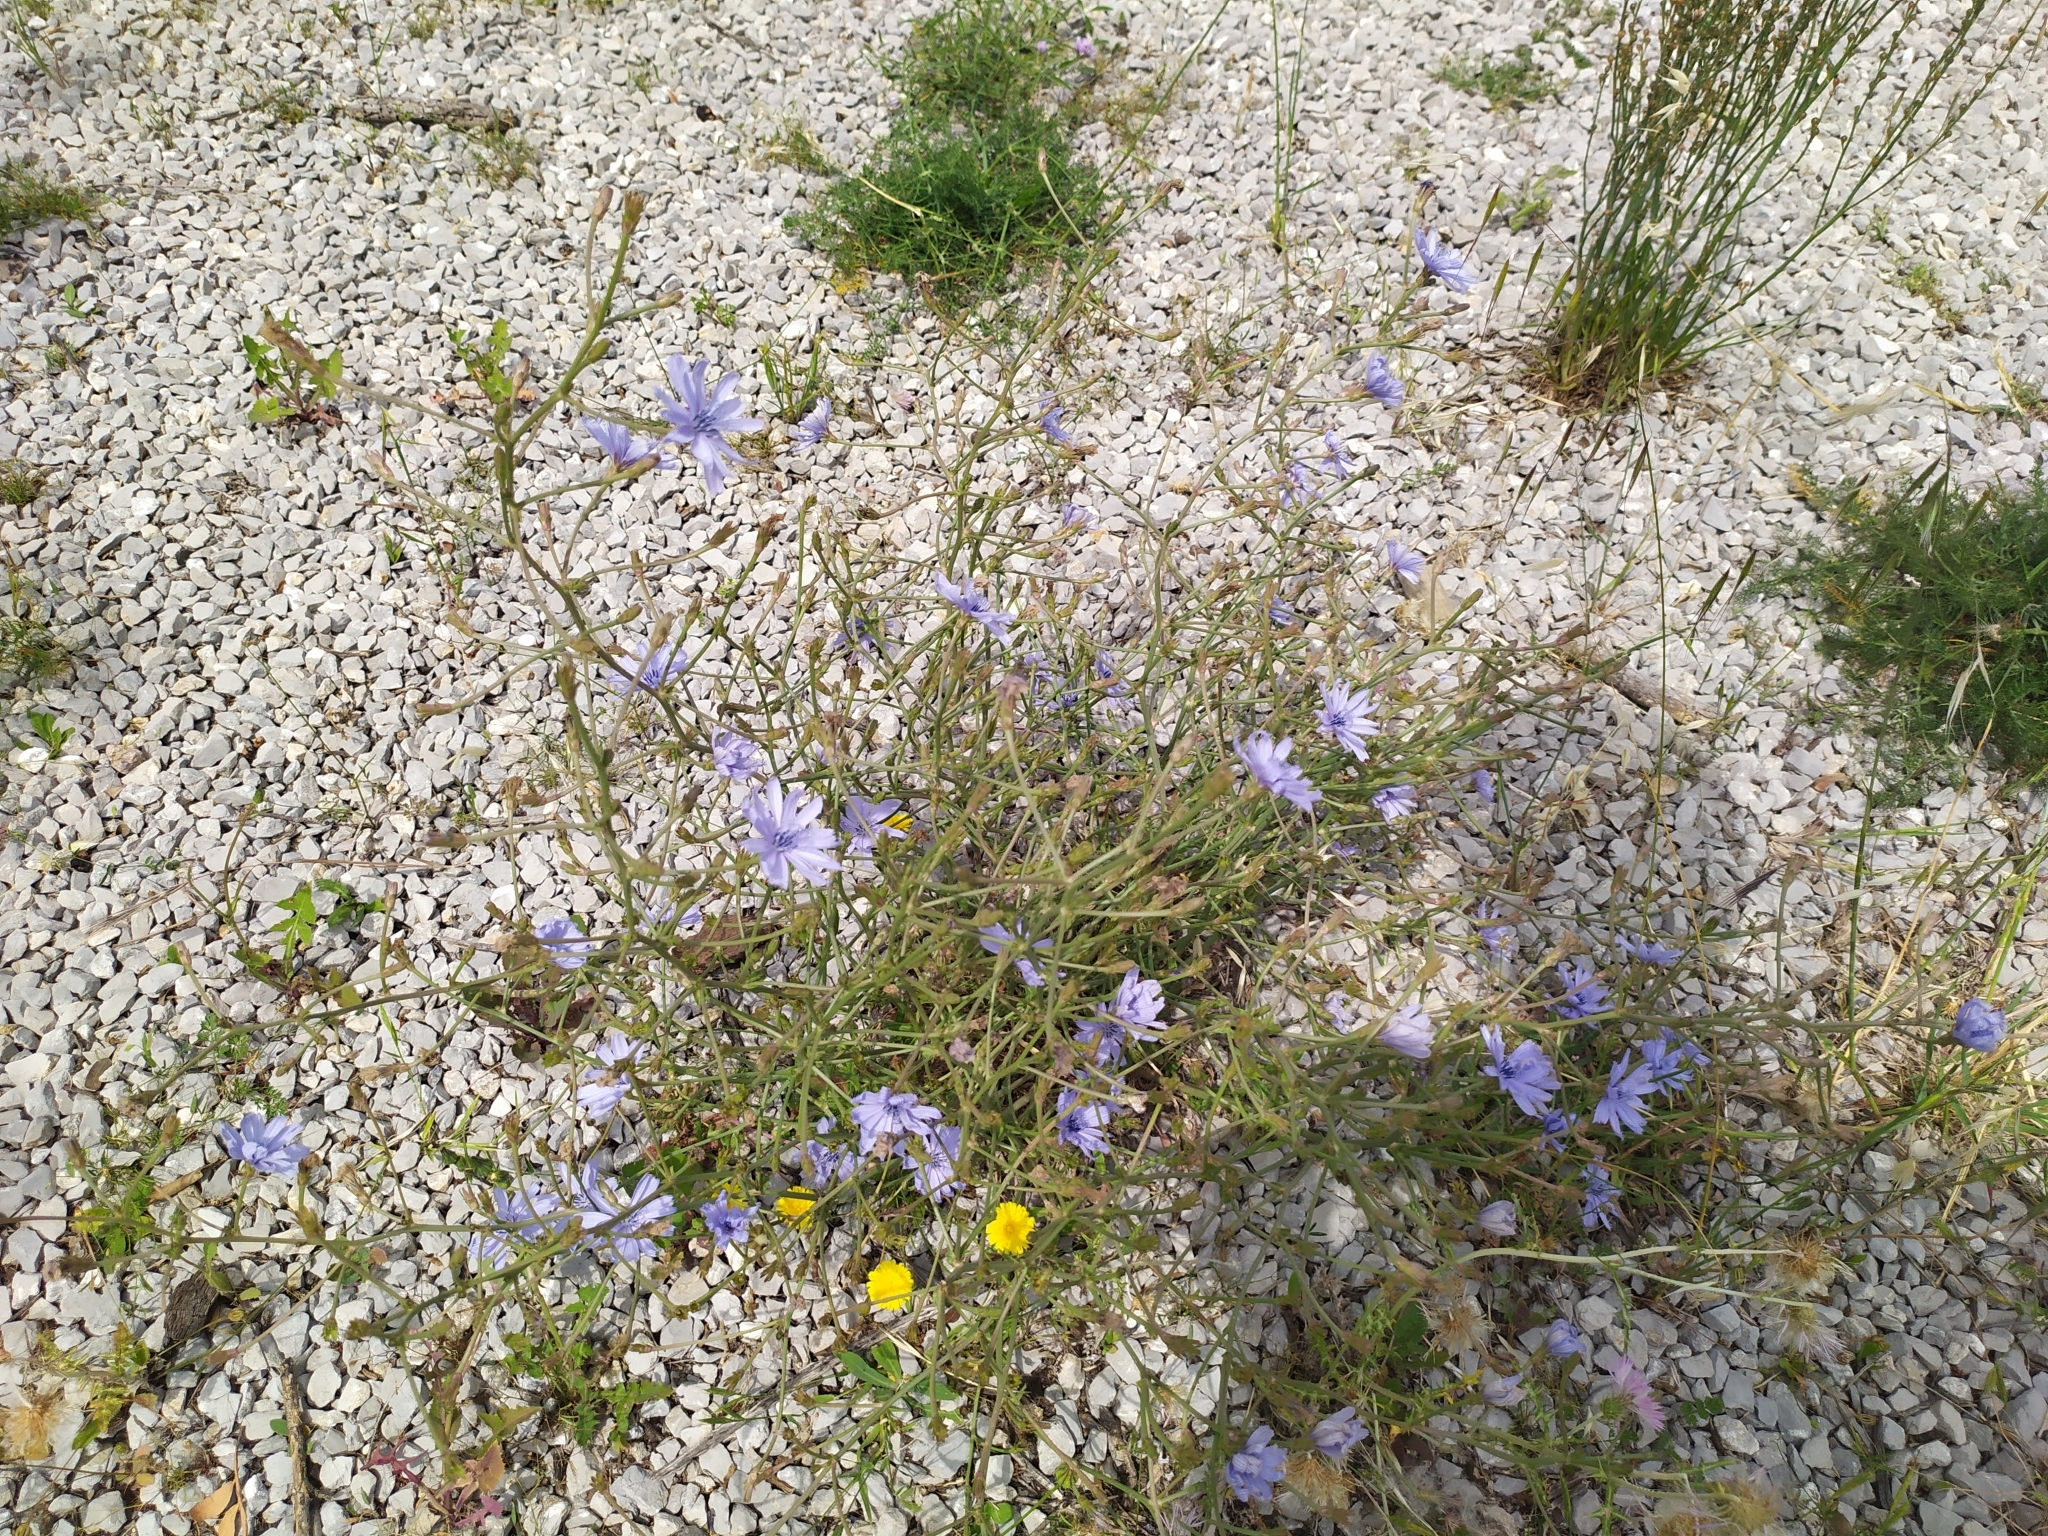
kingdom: Plantae
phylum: Tracheophyta
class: Magnoliopsida
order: Asterales
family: Asteraceae
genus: Cichorium
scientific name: Cichorium intybus
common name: Chicory
